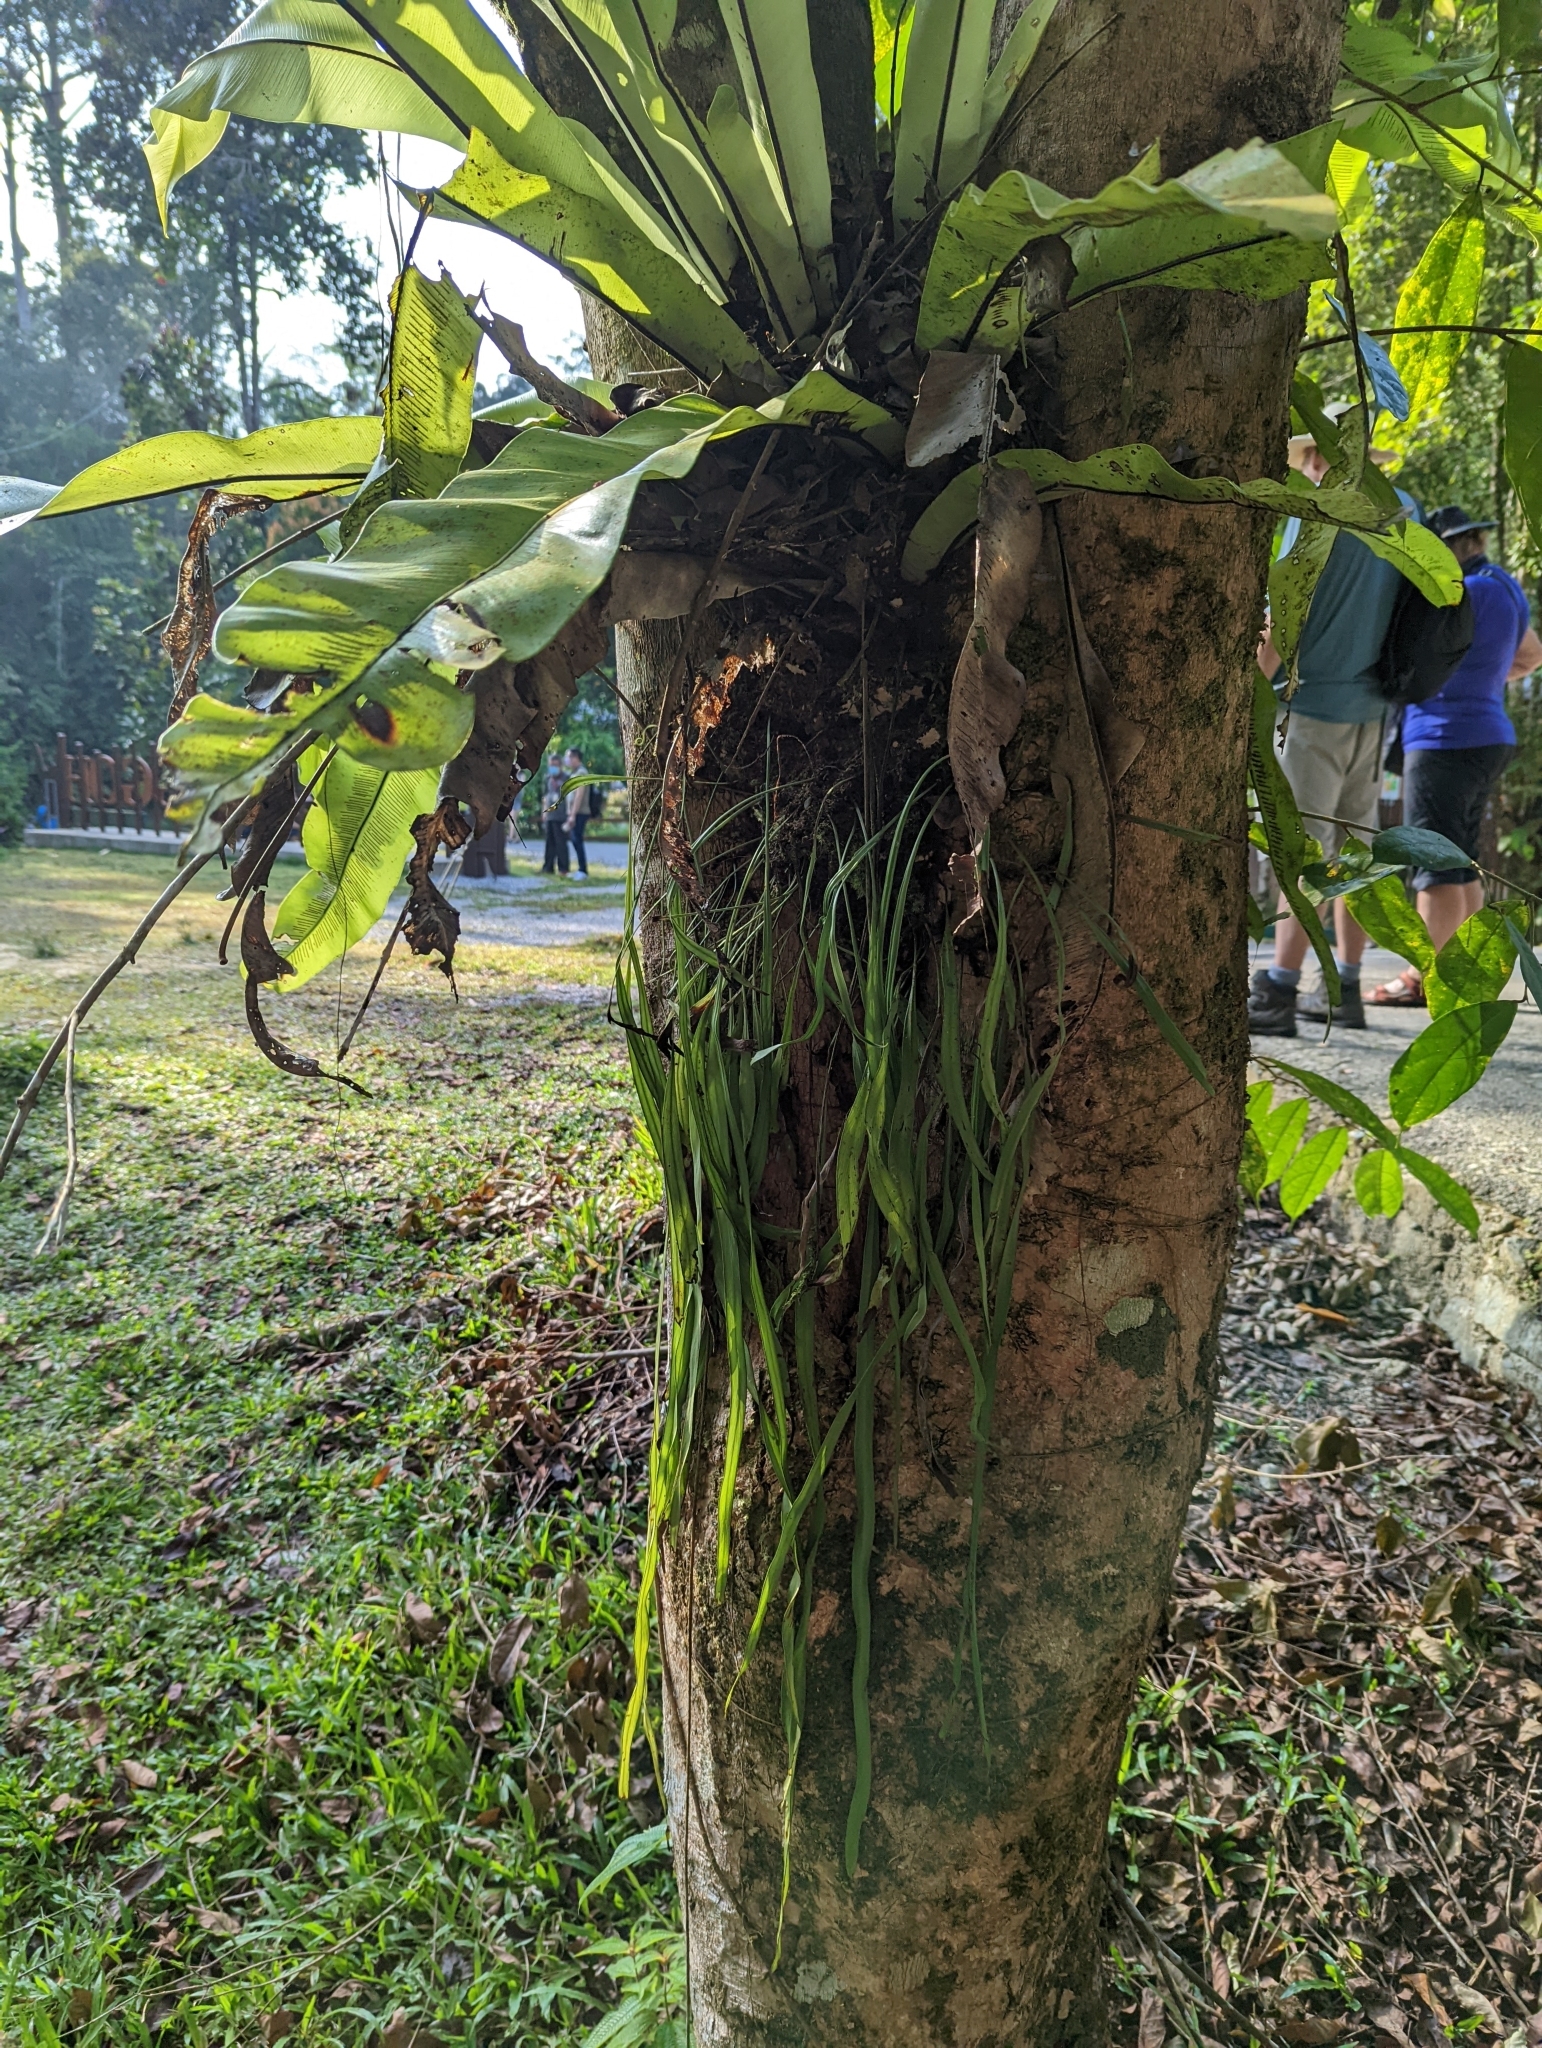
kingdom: Plantae
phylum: Tracheophyta
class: Polypodiopsida
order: Polypodiales
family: Polypodiaceae
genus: Pyrrosia
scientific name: Pyrrosia longifolia
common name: Long-leaved felt fern
